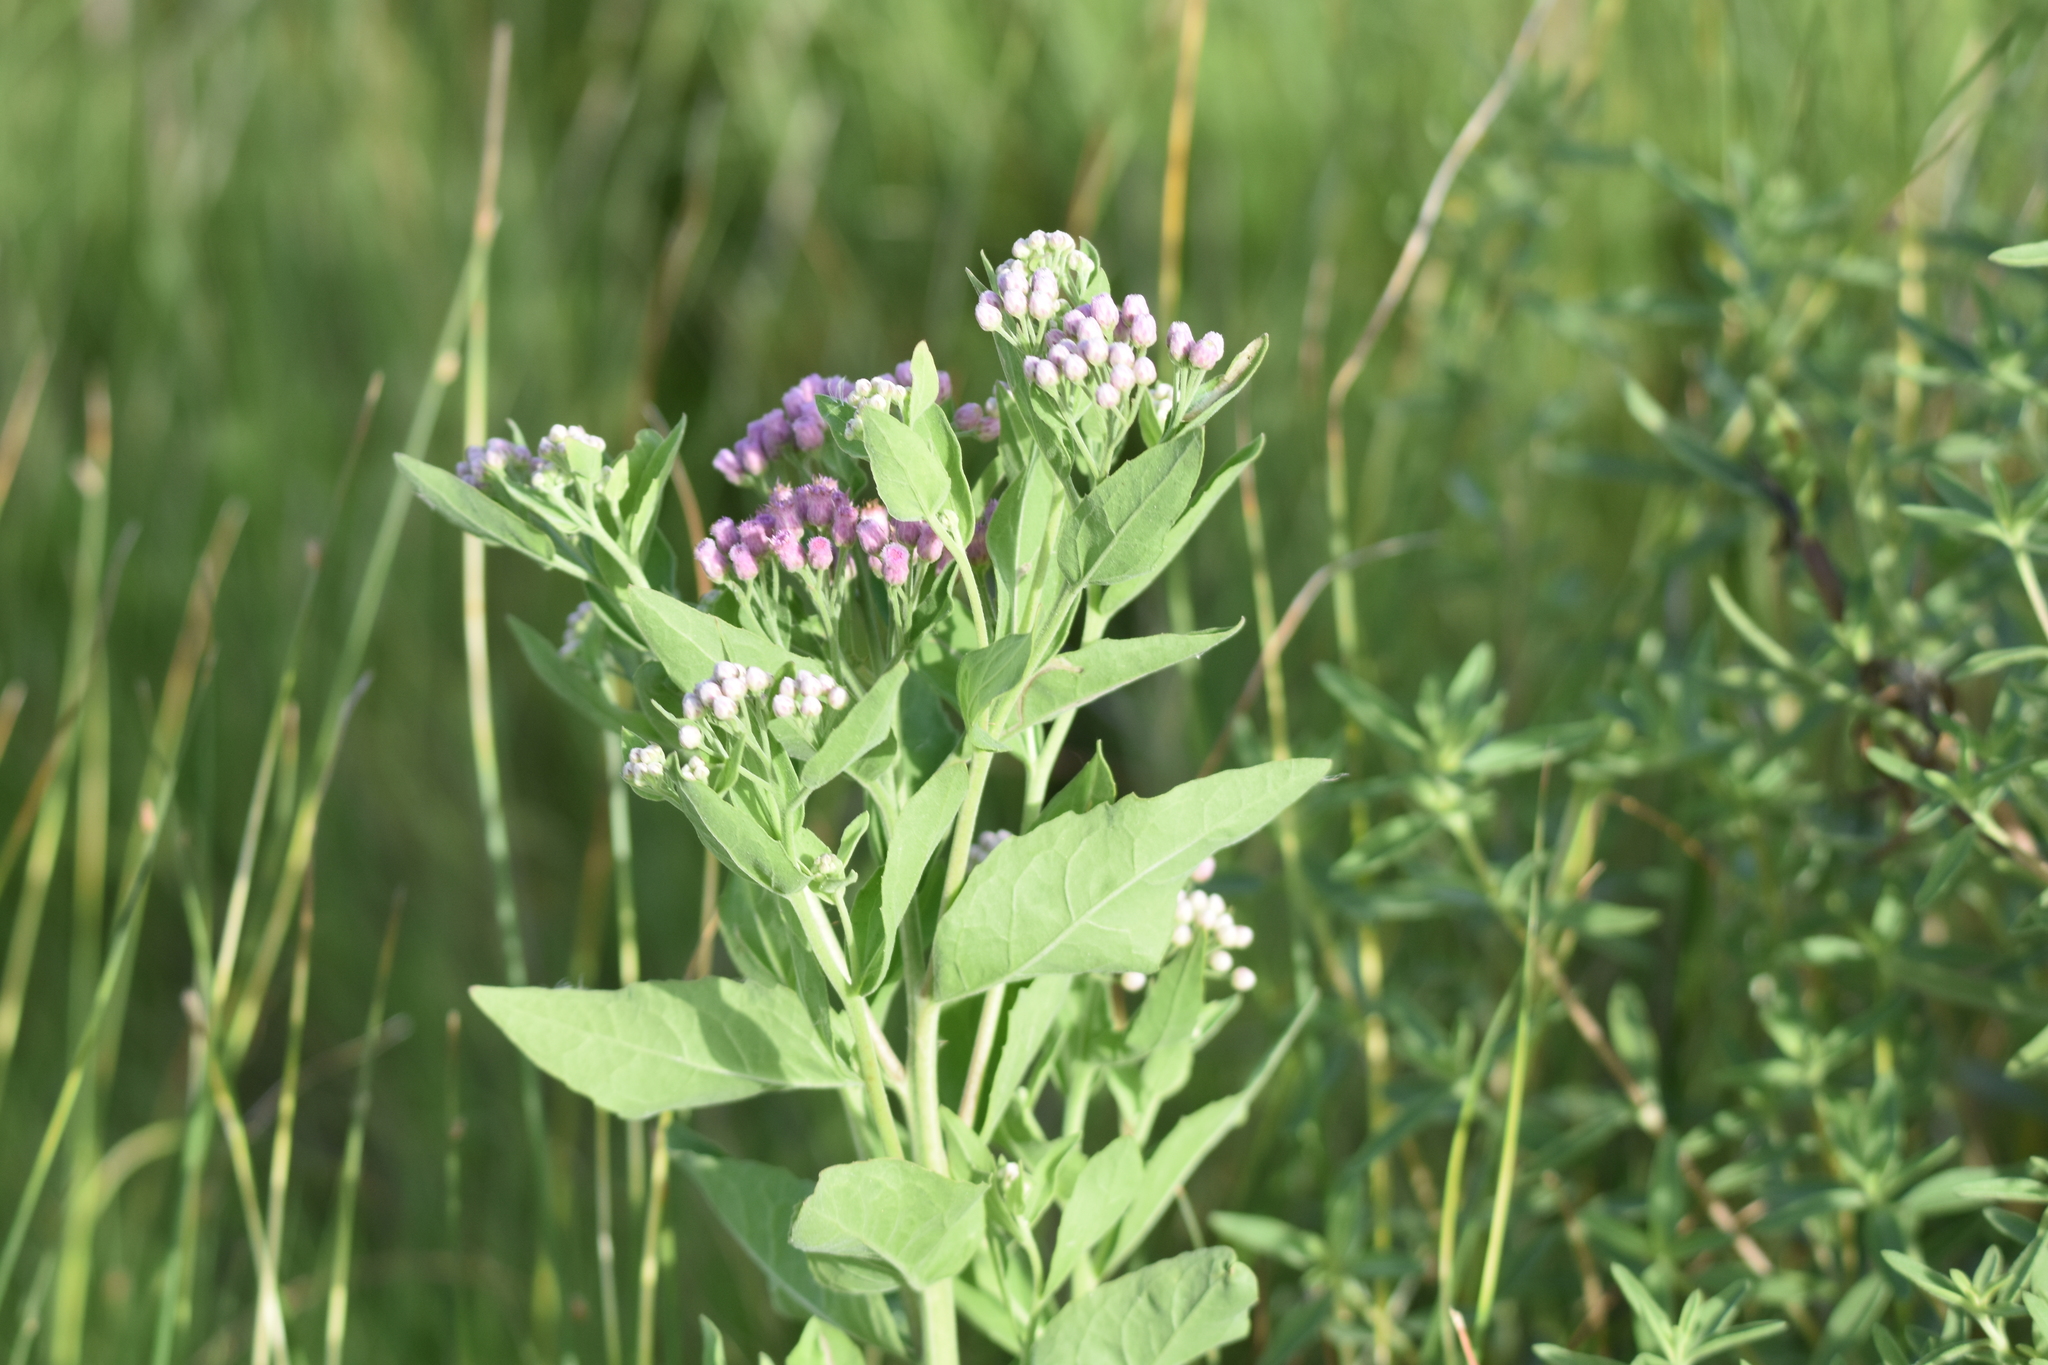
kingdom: Plantae
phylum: Tracheophyta
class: Magnoliopsida
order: Asterales
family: Asteraceae
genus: Pluchea
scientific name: Pluchea odorata
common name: Saltmarsh fleabane
